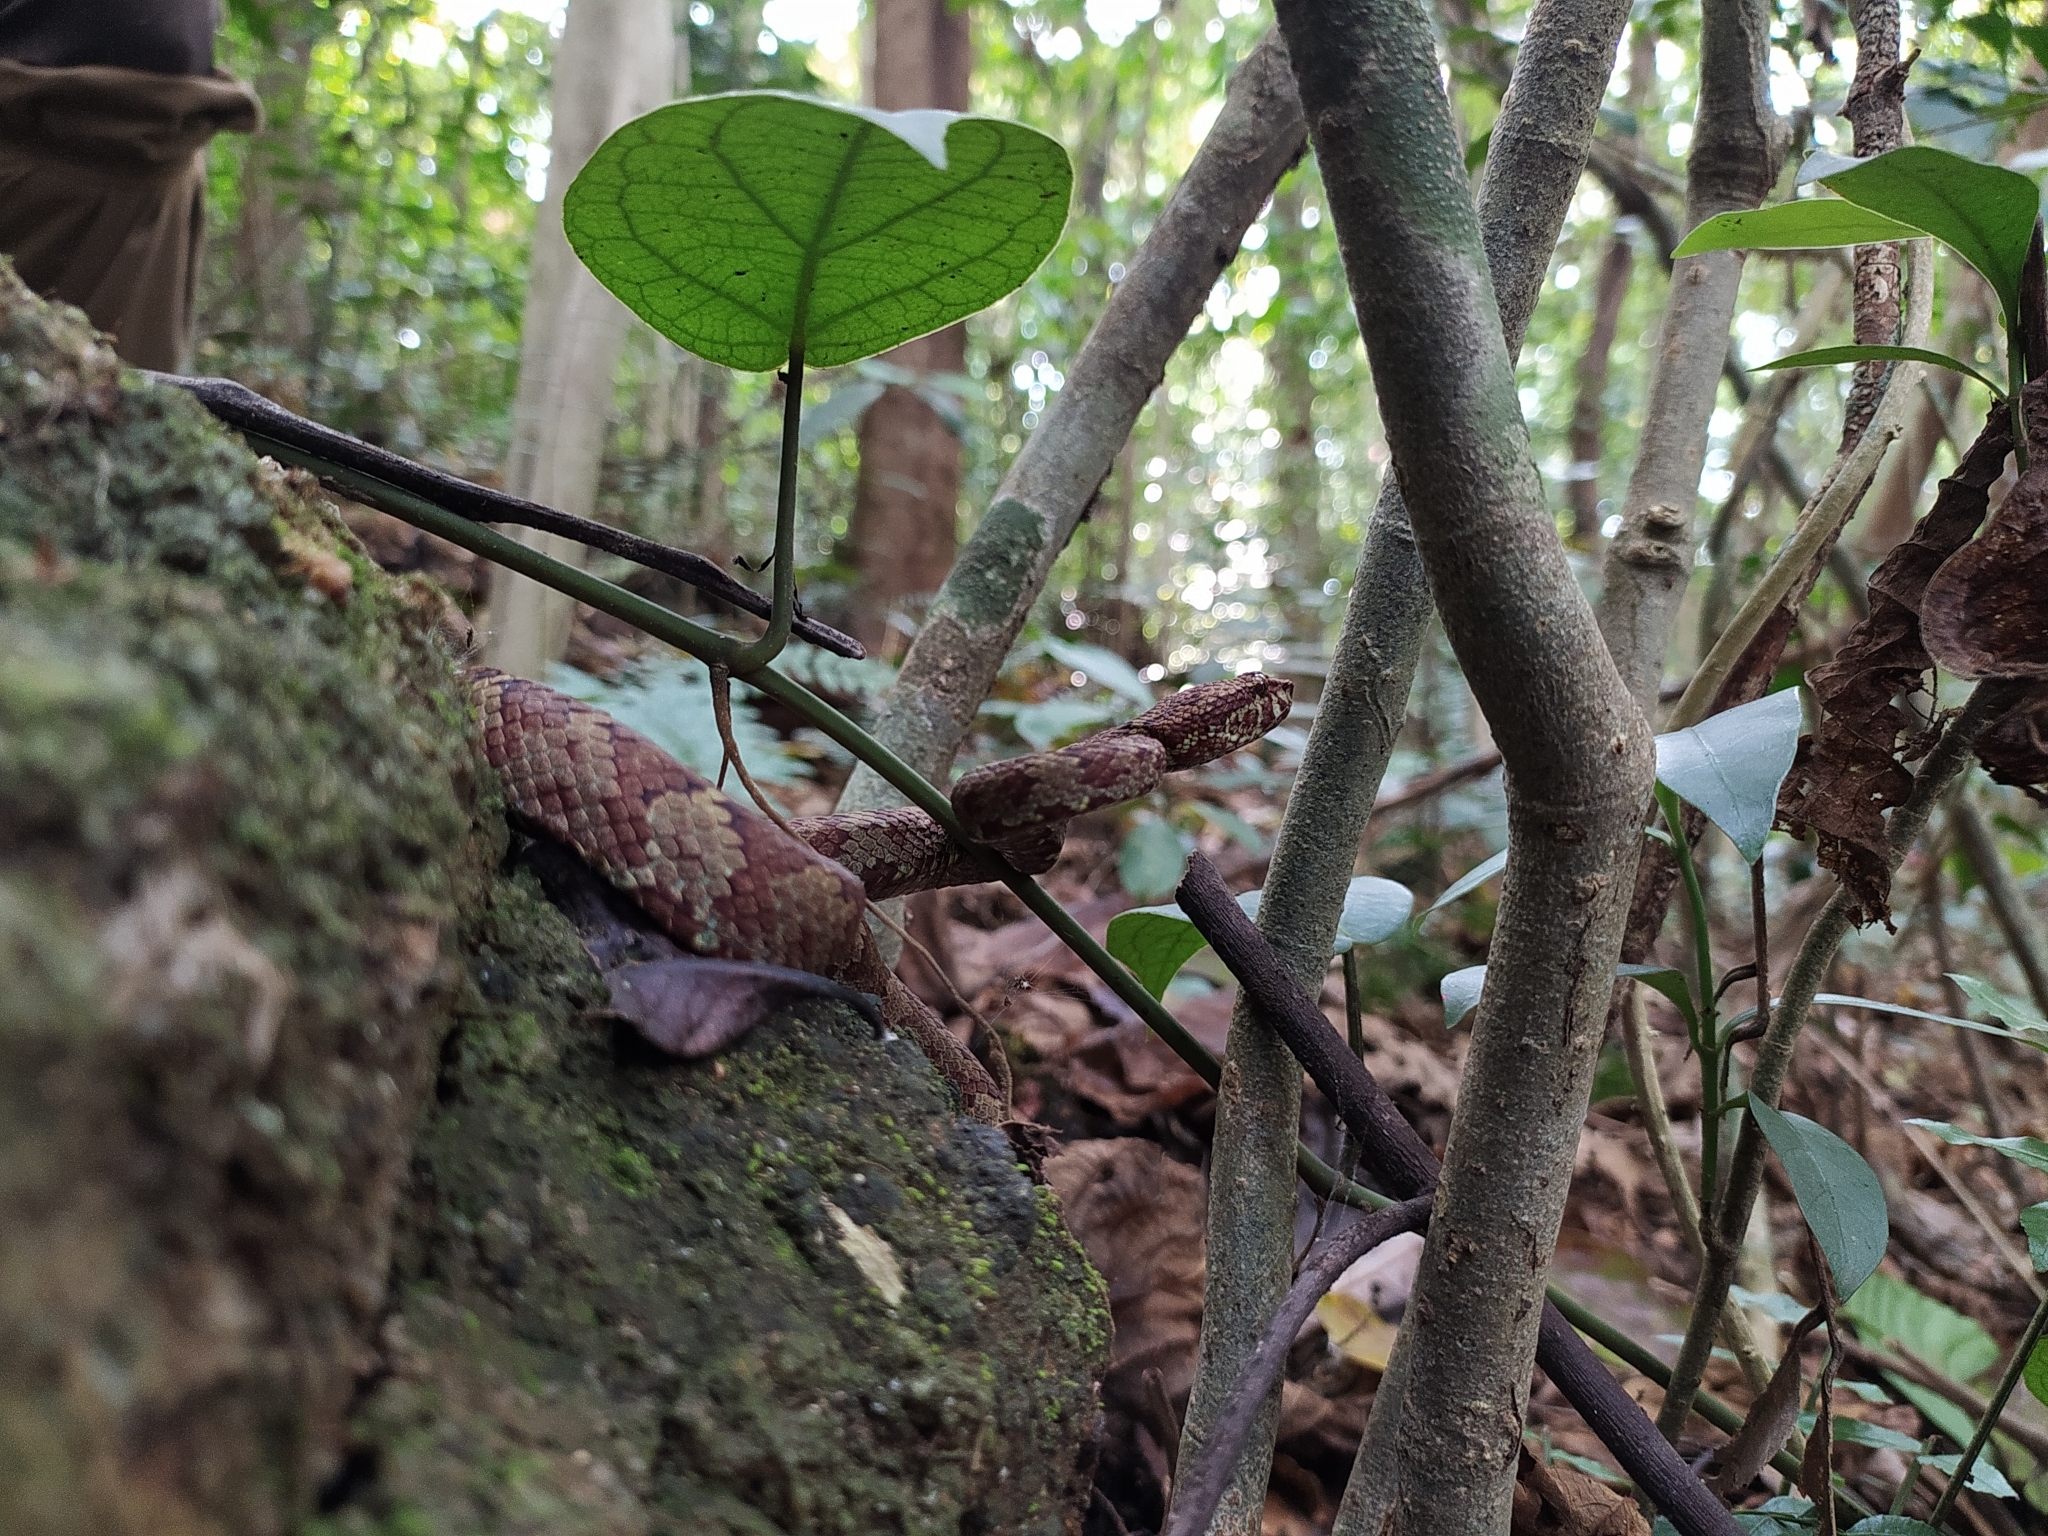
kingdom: Animalia
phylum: Chordata
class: Squamata
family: Viperidae
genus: Craspedocephalus
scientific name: Craspedocephalus malabaricus
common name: Malabarian pit viper
